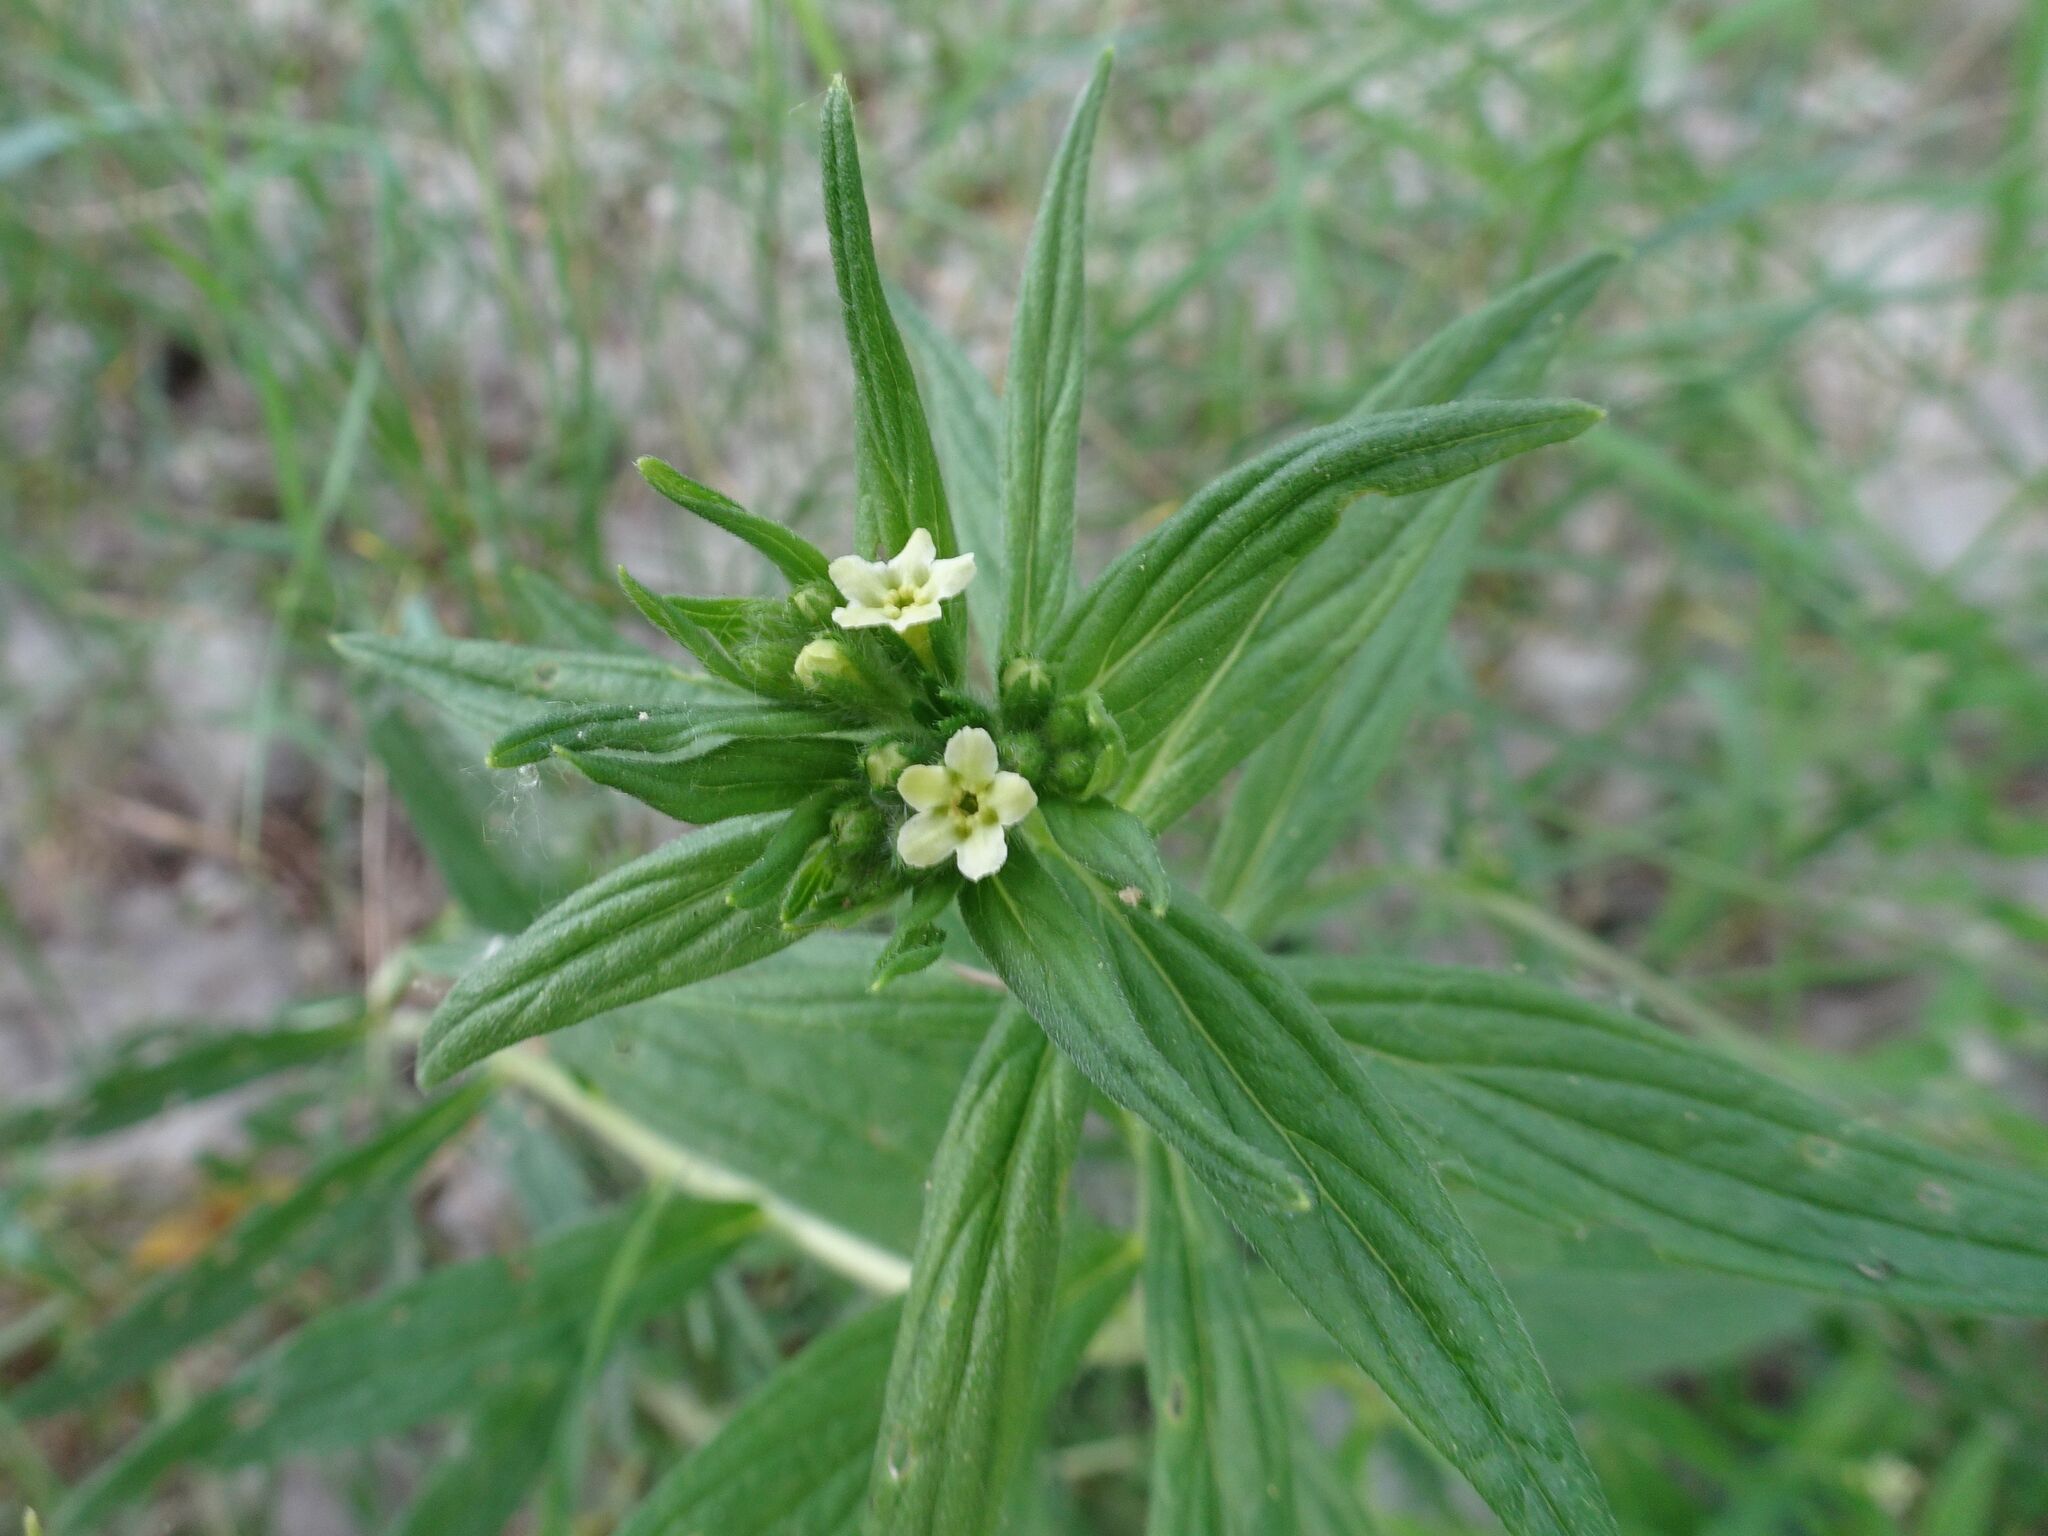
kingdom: Plantae
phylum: Tracheophyta
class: Magnoliopsida
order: Boraginales
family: Boraginaceae
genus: Lithospermum
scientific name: Lithospermum officinale
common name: Common gromwell
